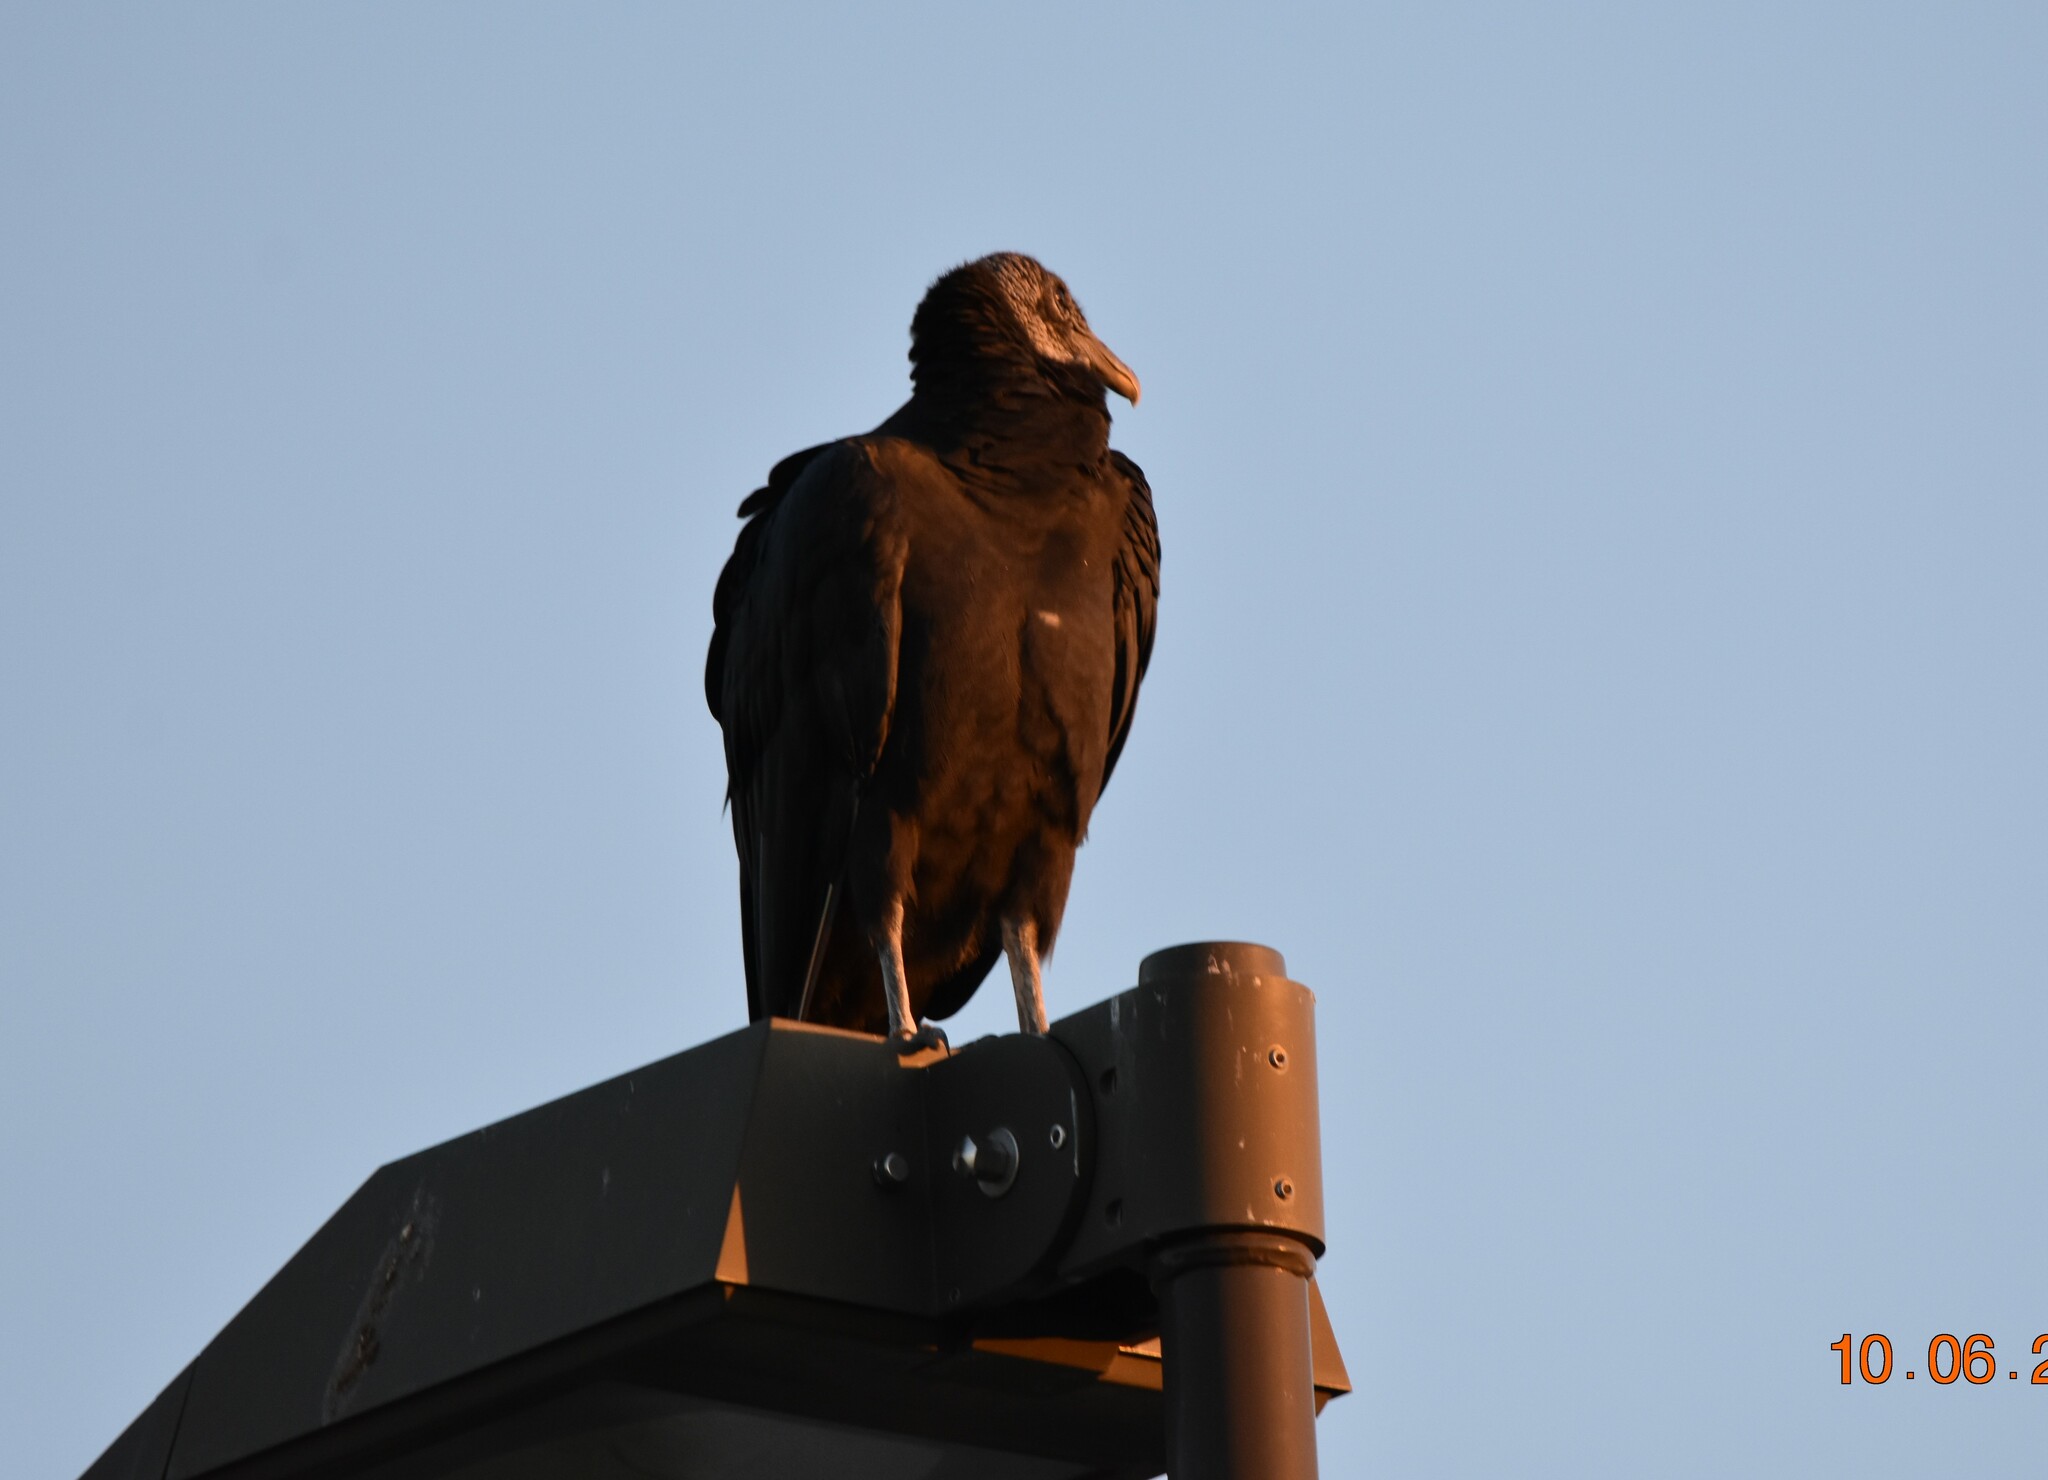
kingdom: Animalia
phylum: Chordata
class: Aves
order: Accipitriformes
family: Cathartidae
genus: Coragyps
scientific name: Coragyps atratus
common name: Black vulture
